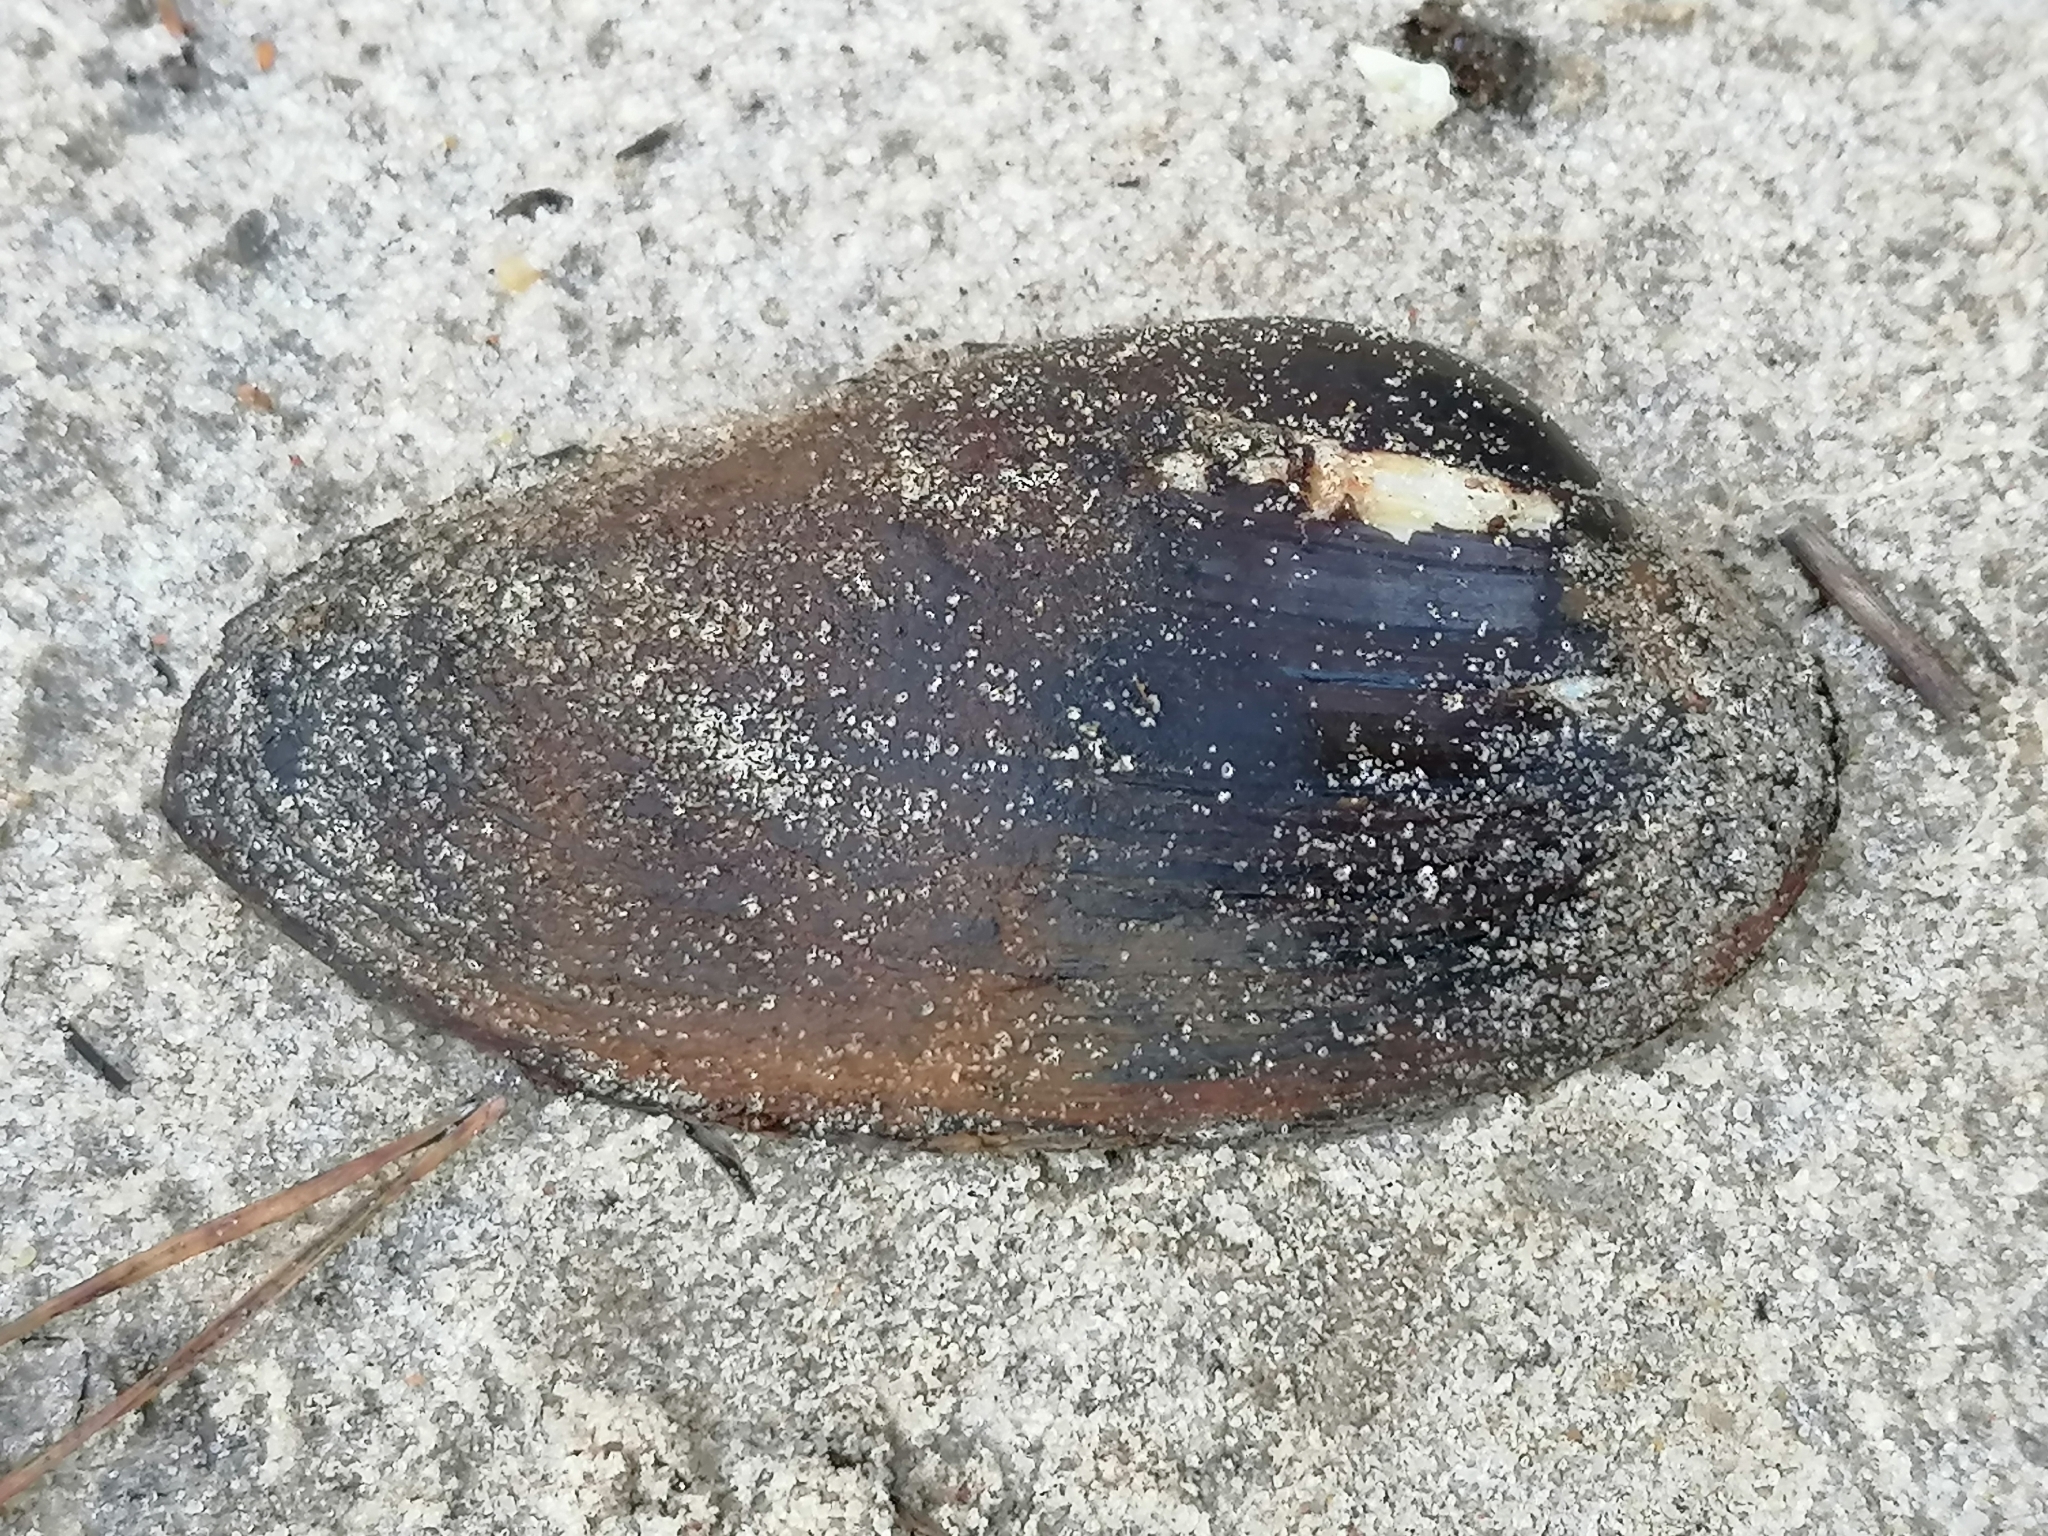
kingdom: Animalia
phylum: Mollusca
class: Bivalvia
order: Unionida
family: Unionidae
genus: Unio
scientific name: Unio tumidus
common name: Swollen river mussel
